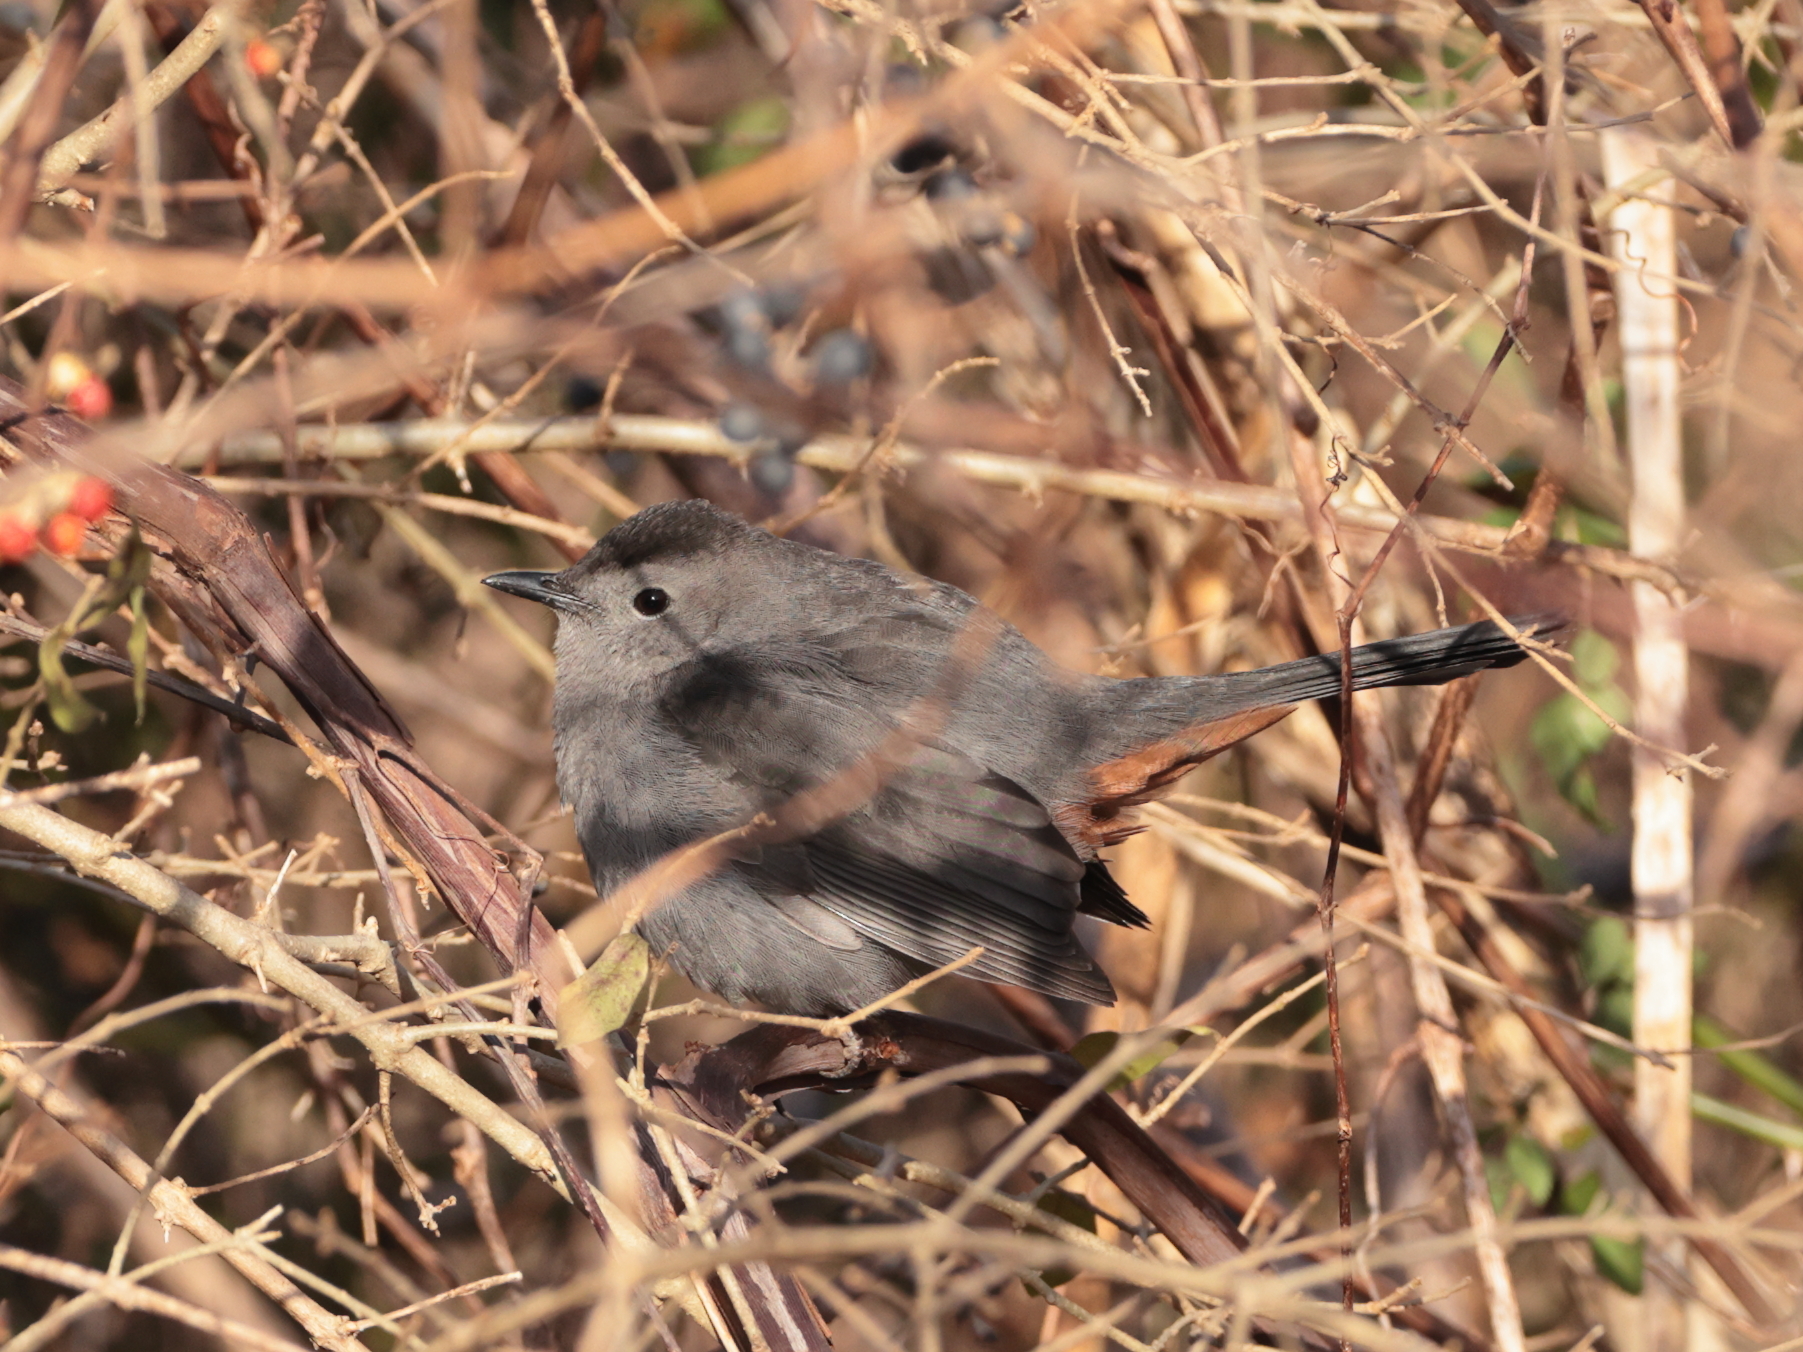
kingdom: Animalia
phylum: Chordata
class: Aves
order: Passeriformes
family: Mimidae
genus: Dumetella
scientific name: Dumetella carolinensis
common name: Gray catbird
